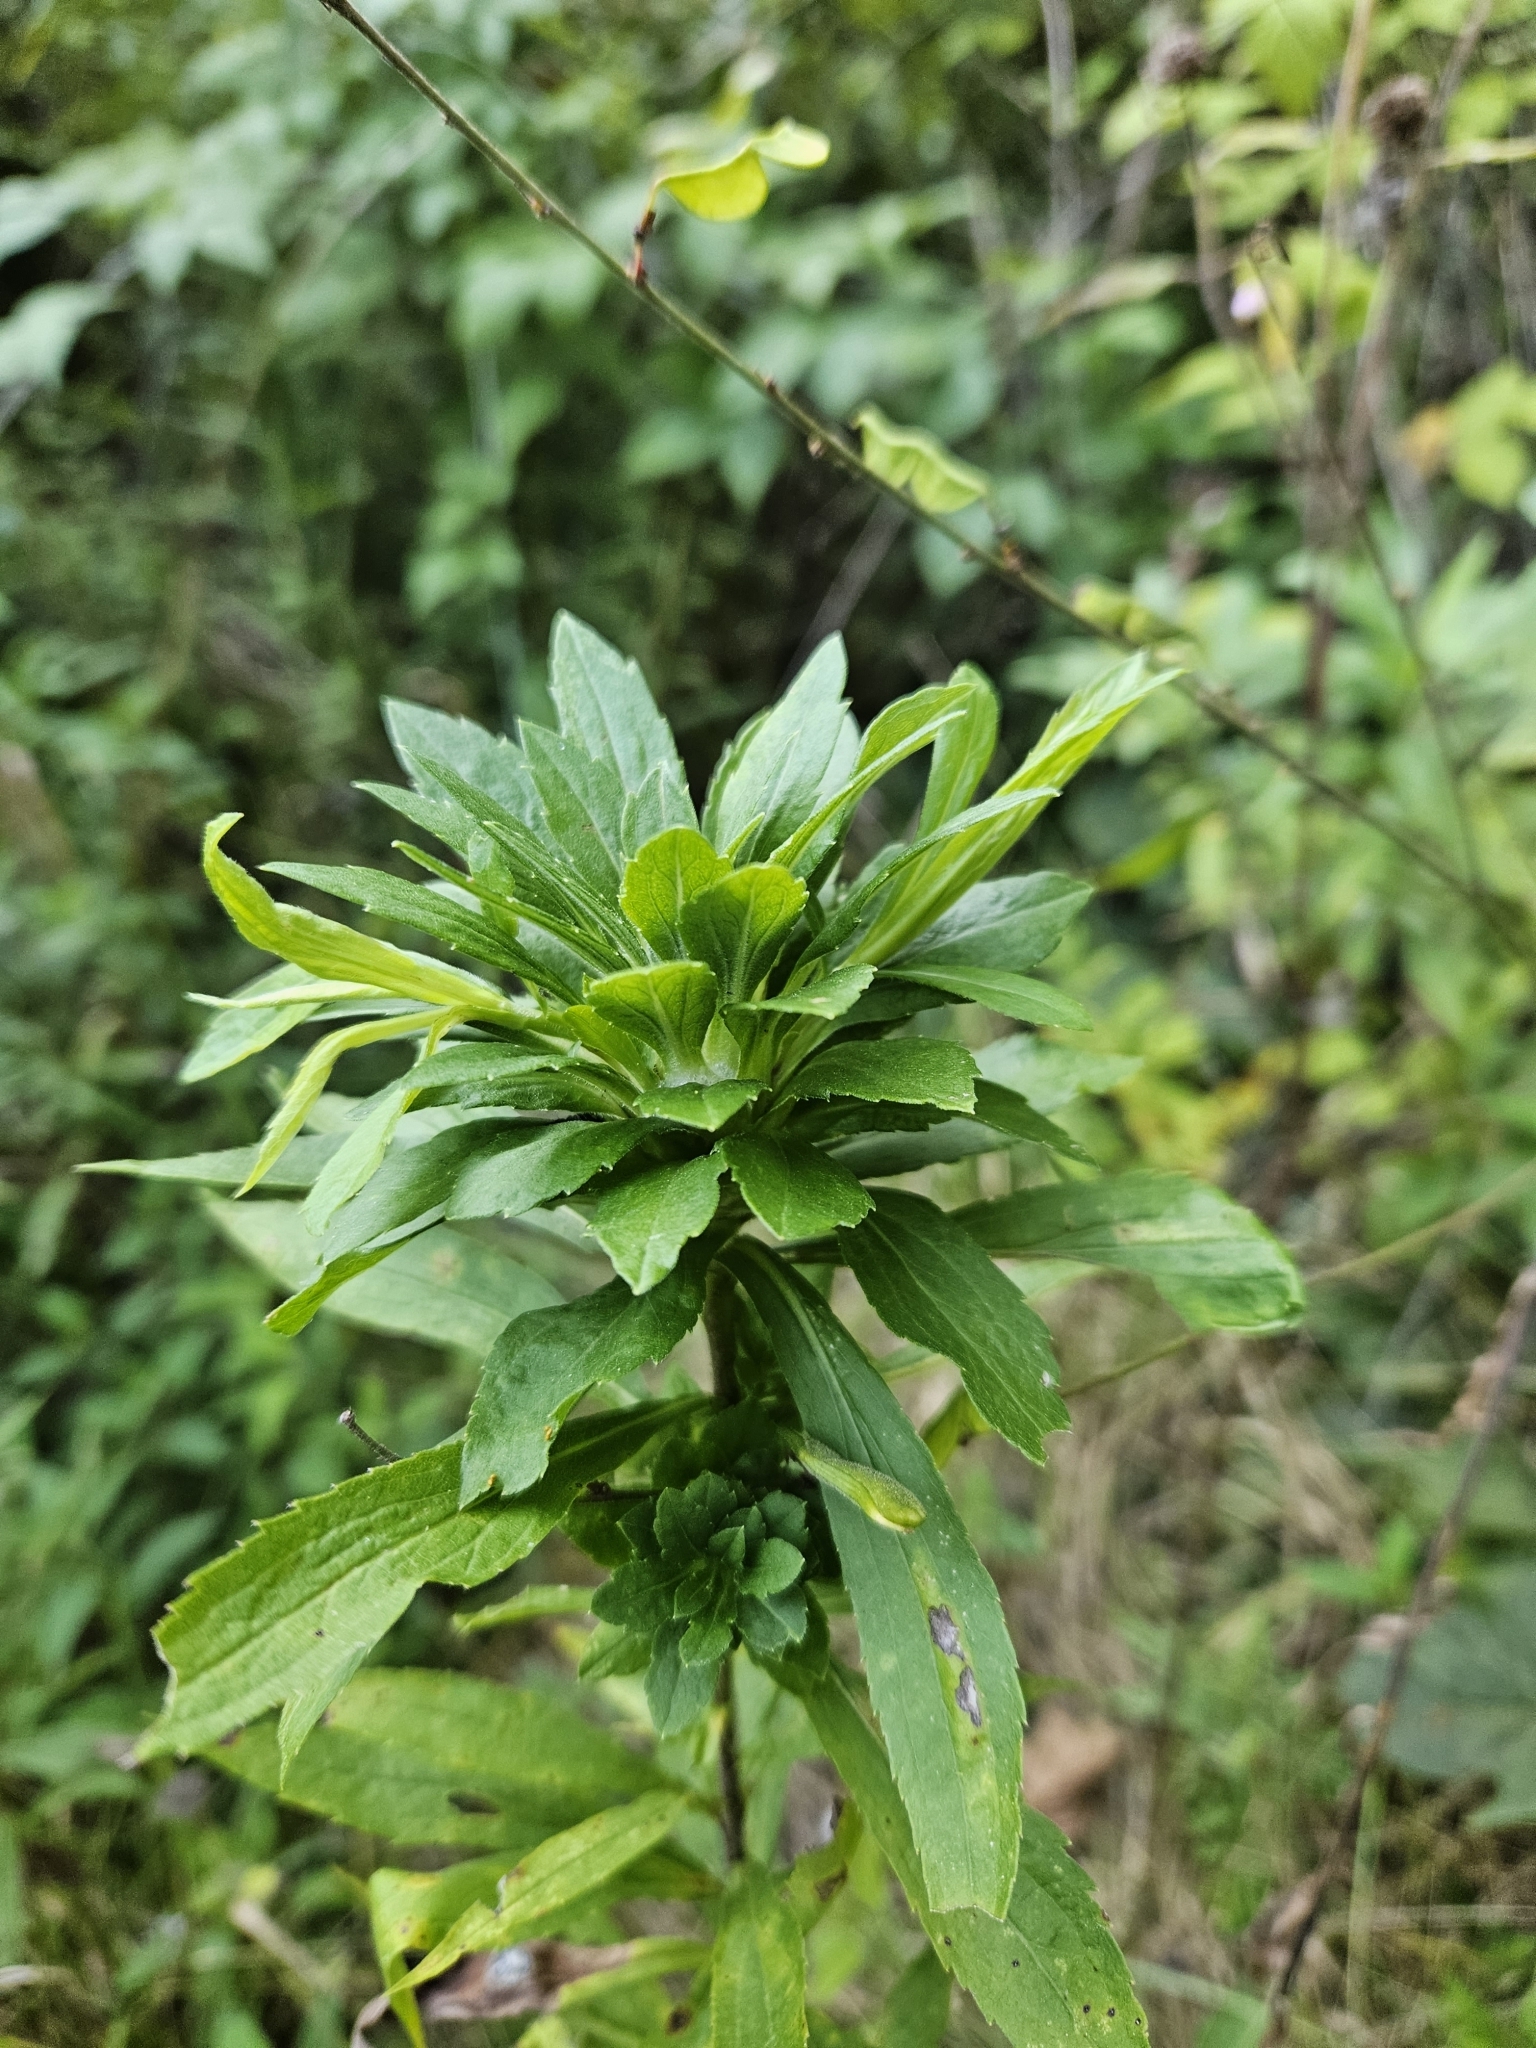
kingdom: Animalia
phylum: Arthropoda
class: Insecta
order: Diptera
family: Tephritidae
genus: Procecidochares
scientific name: Procecidochares atra
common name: Goldenrod brussels sprout gall fly
